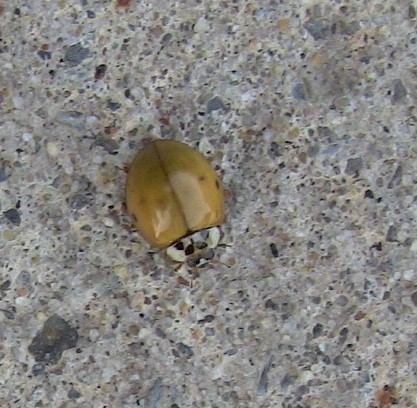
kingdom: Animalia
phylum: Arthropoda
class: Insecta
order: Coleoptera
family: Coccinellidae
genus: Harmonia
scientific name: Harmonia axyridis
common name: Harlequin ladybird
